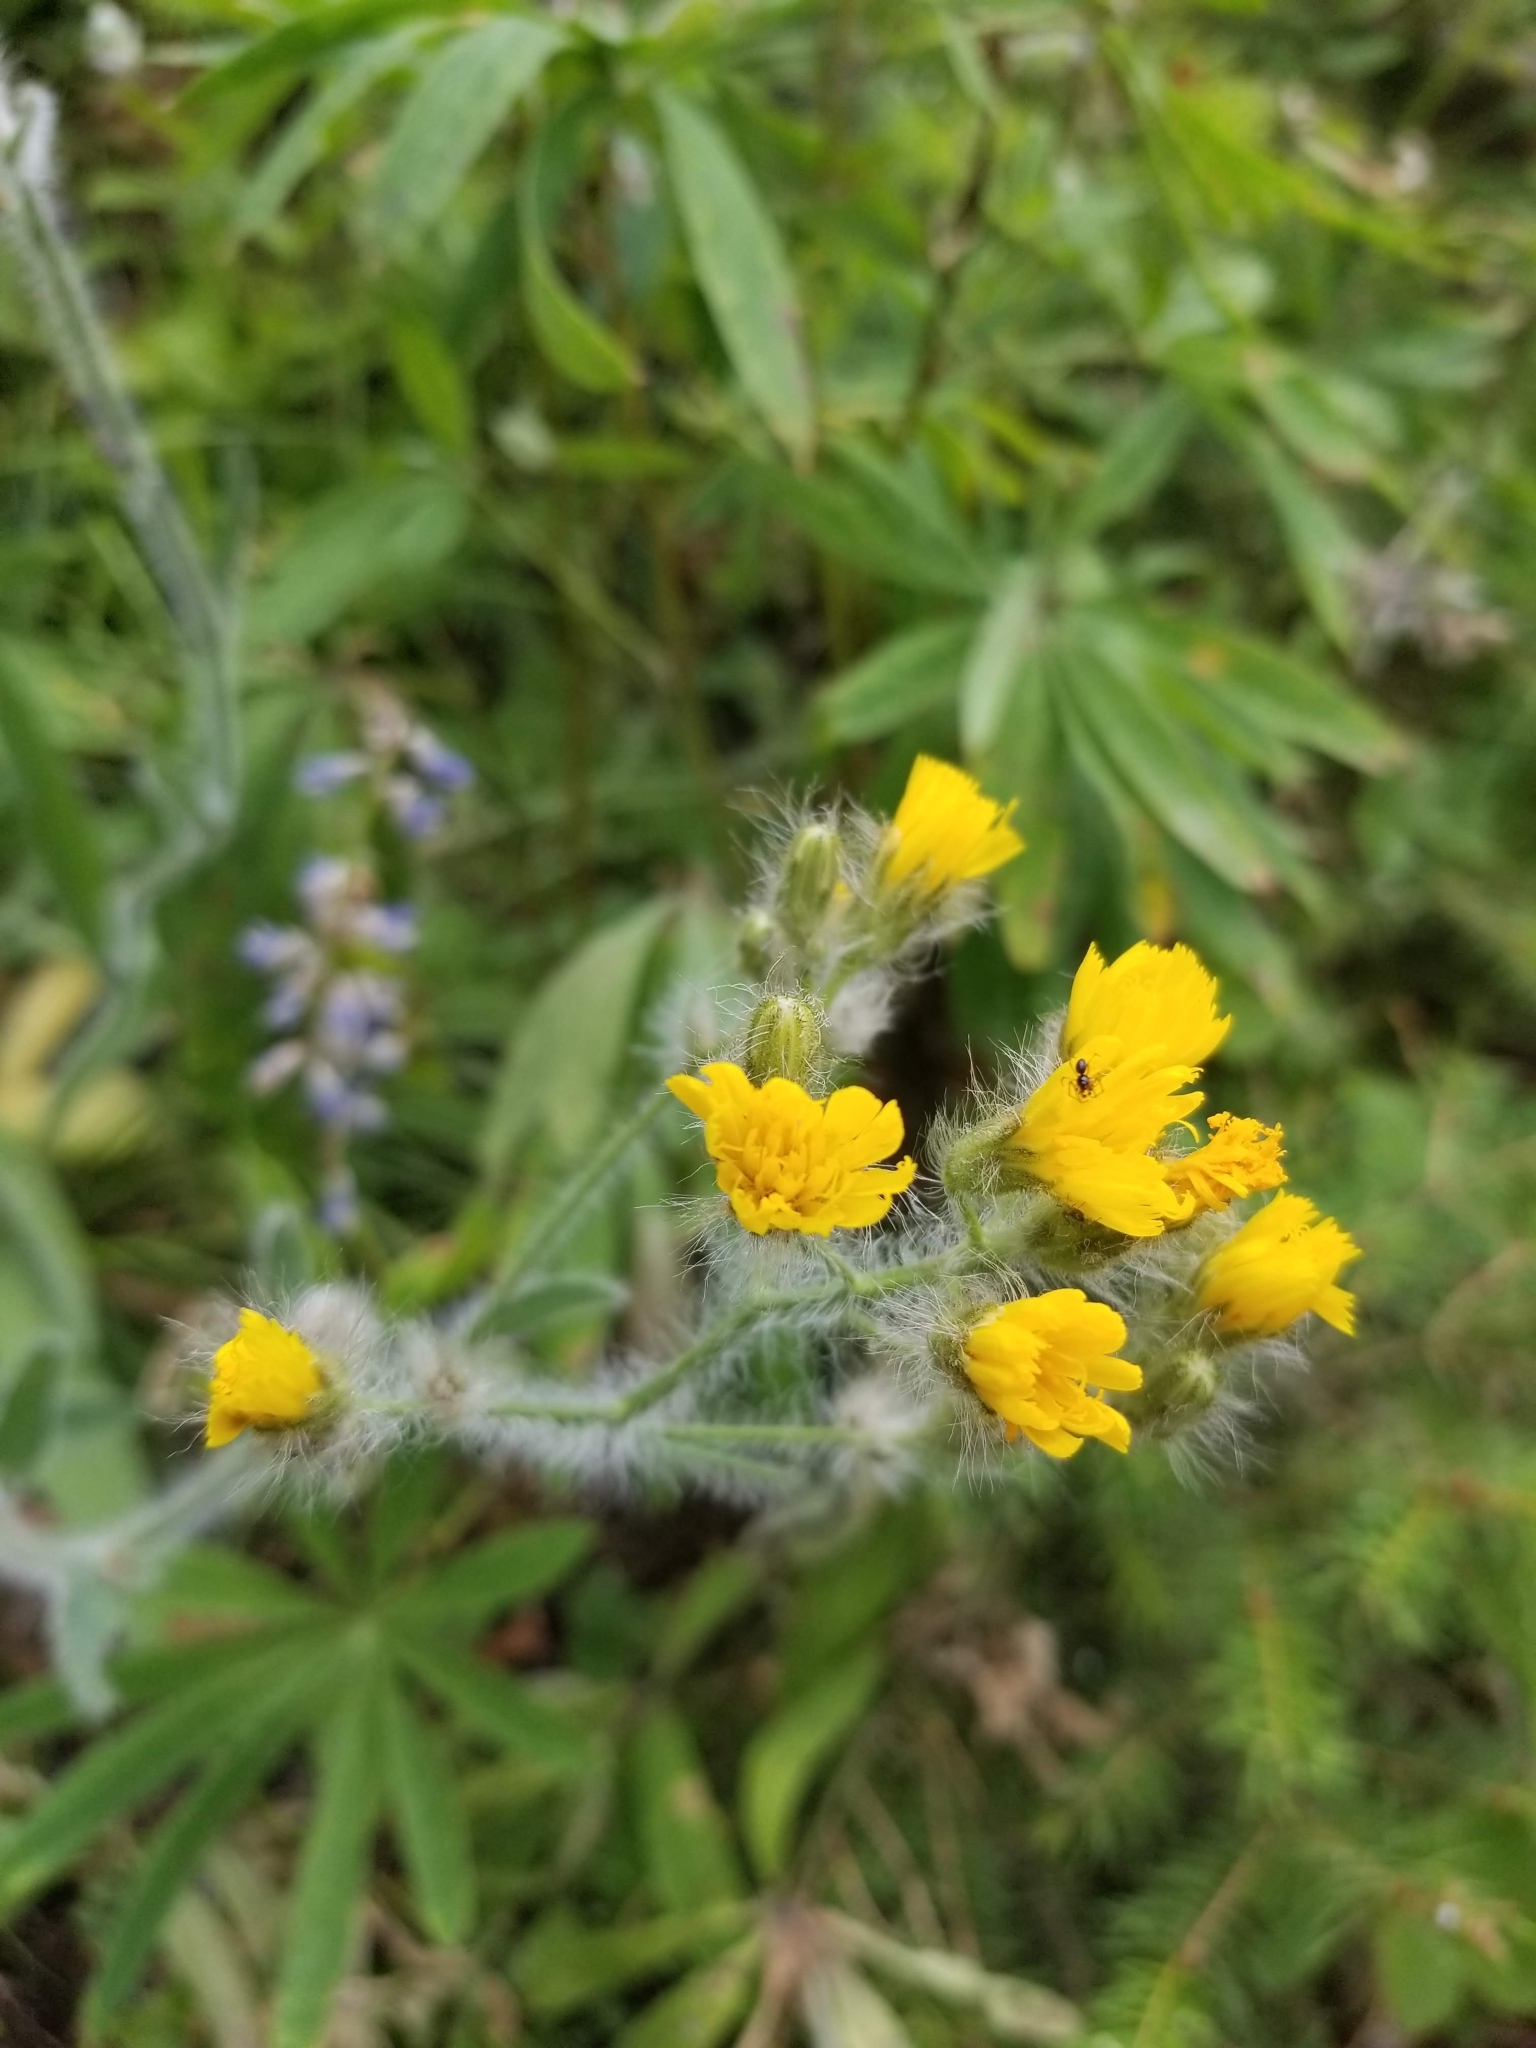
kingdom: Plantae
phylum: Tracheophyta
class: Magnoliopsida
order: Asterales
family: Asteraceae
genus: Hieracium
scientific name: Hieracium scouleri
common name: Hound's-tongue hawkweed
